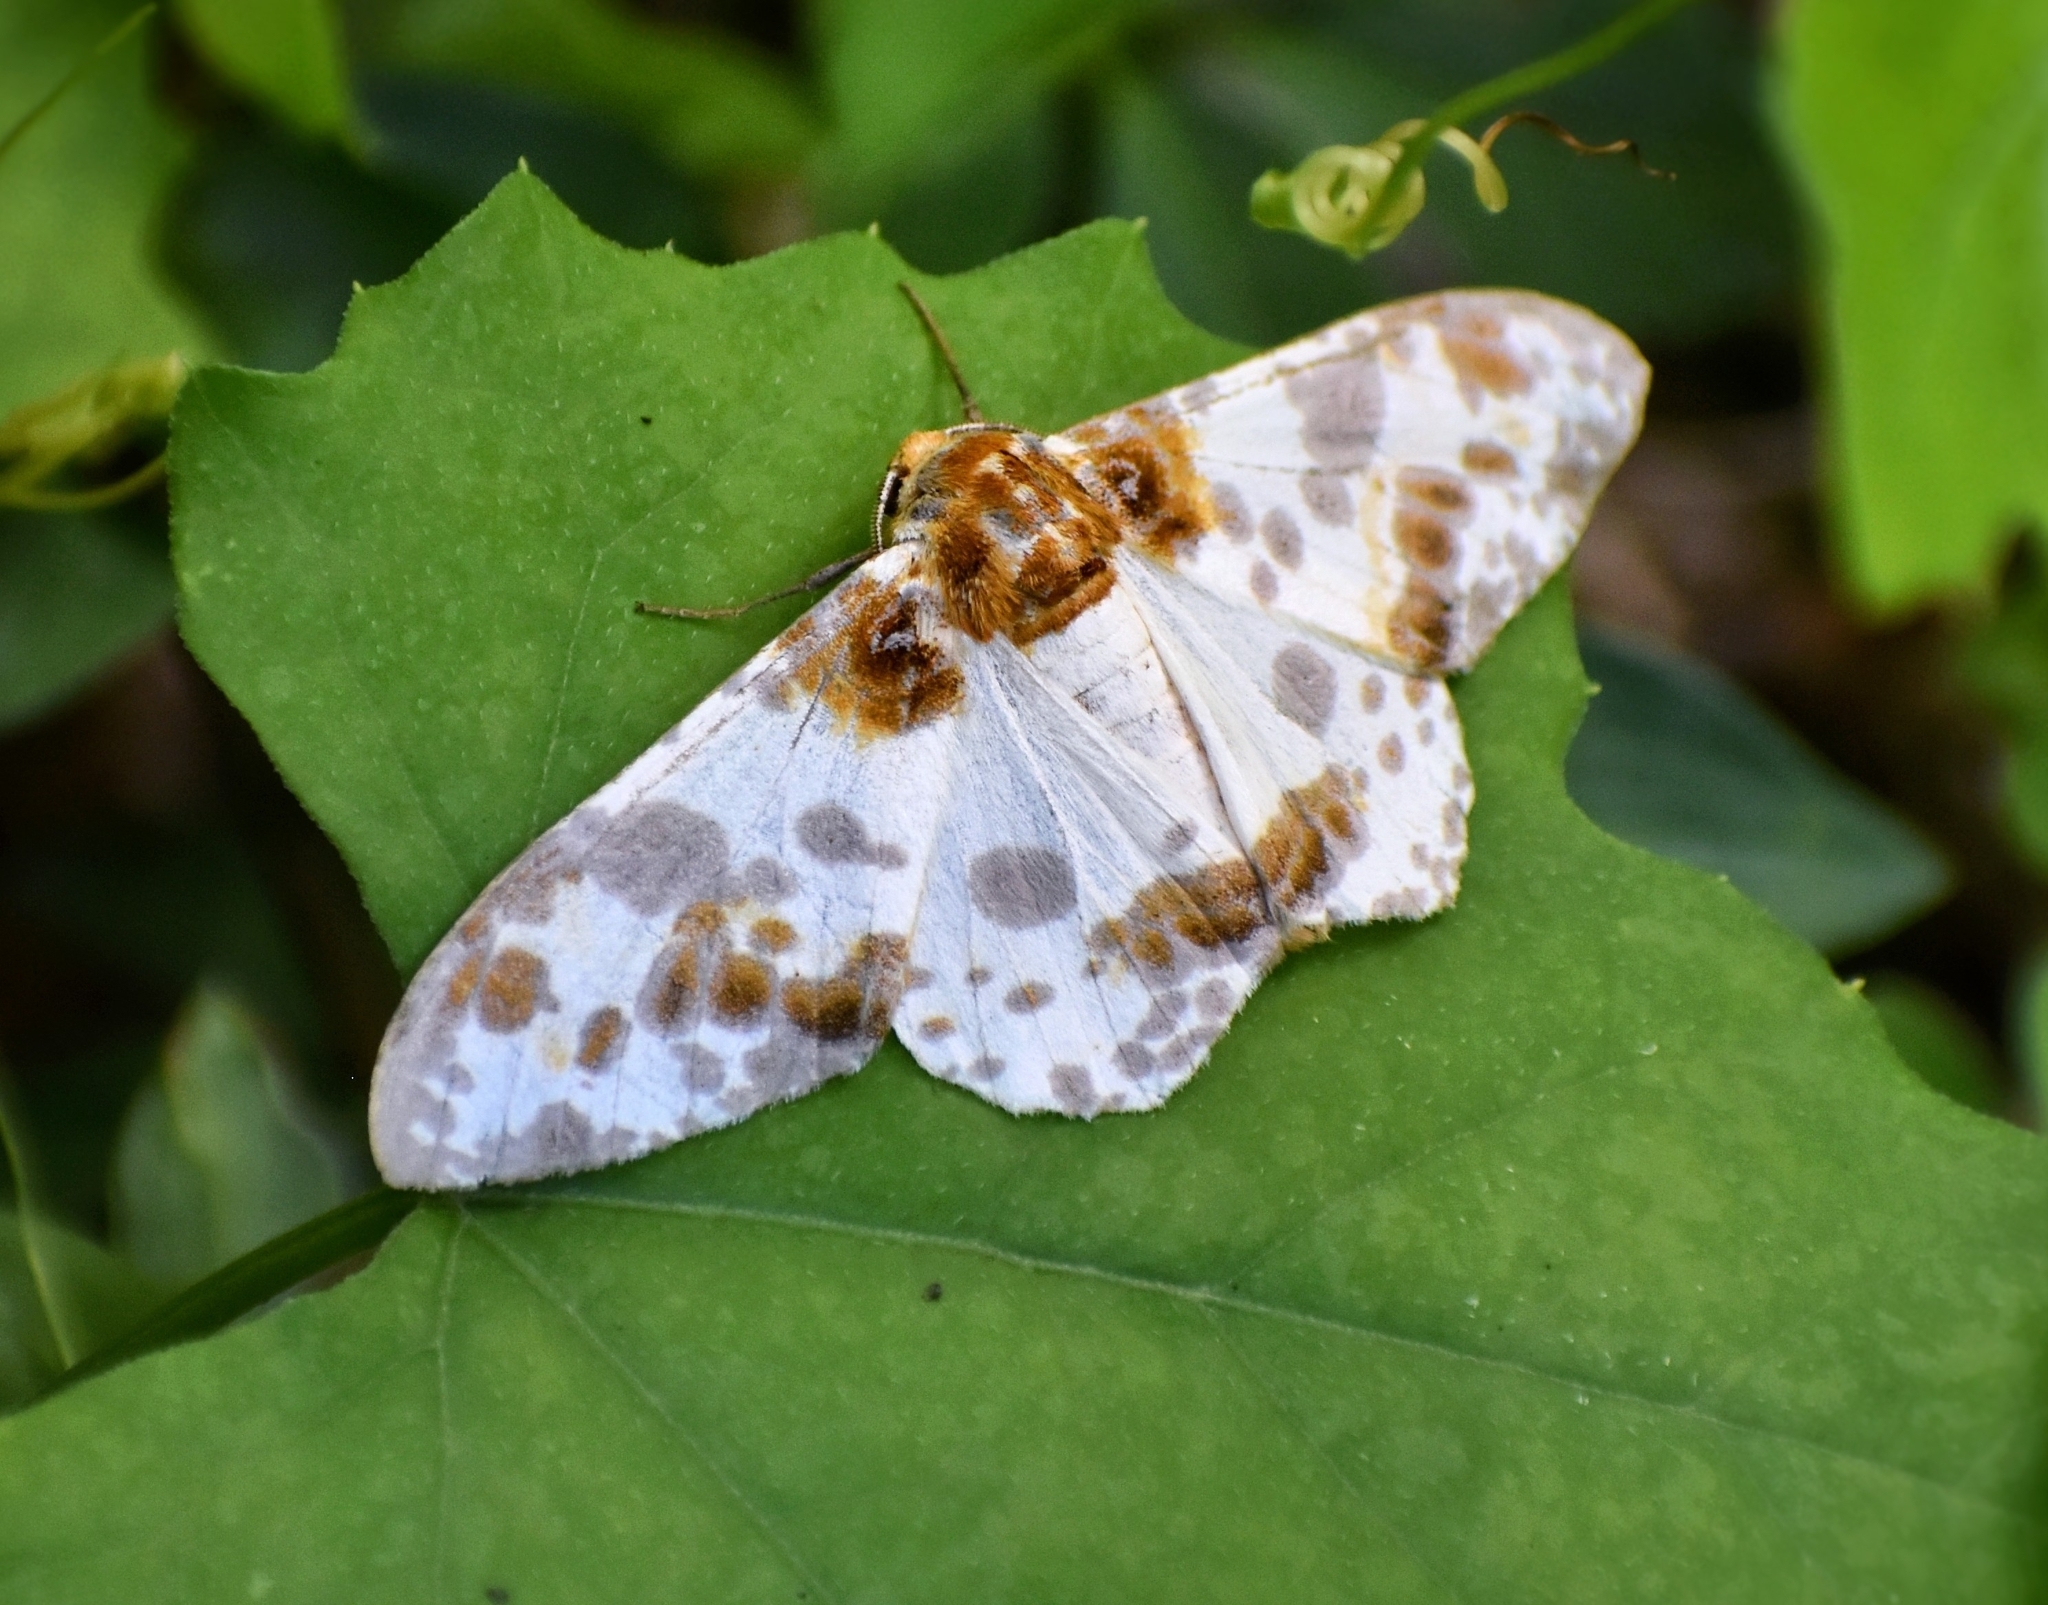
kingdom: Animalia
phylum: Arthropoda
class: Insecta
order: Lepidoptera
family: Geometridae
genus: Biston
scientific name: Biston panterinaria
